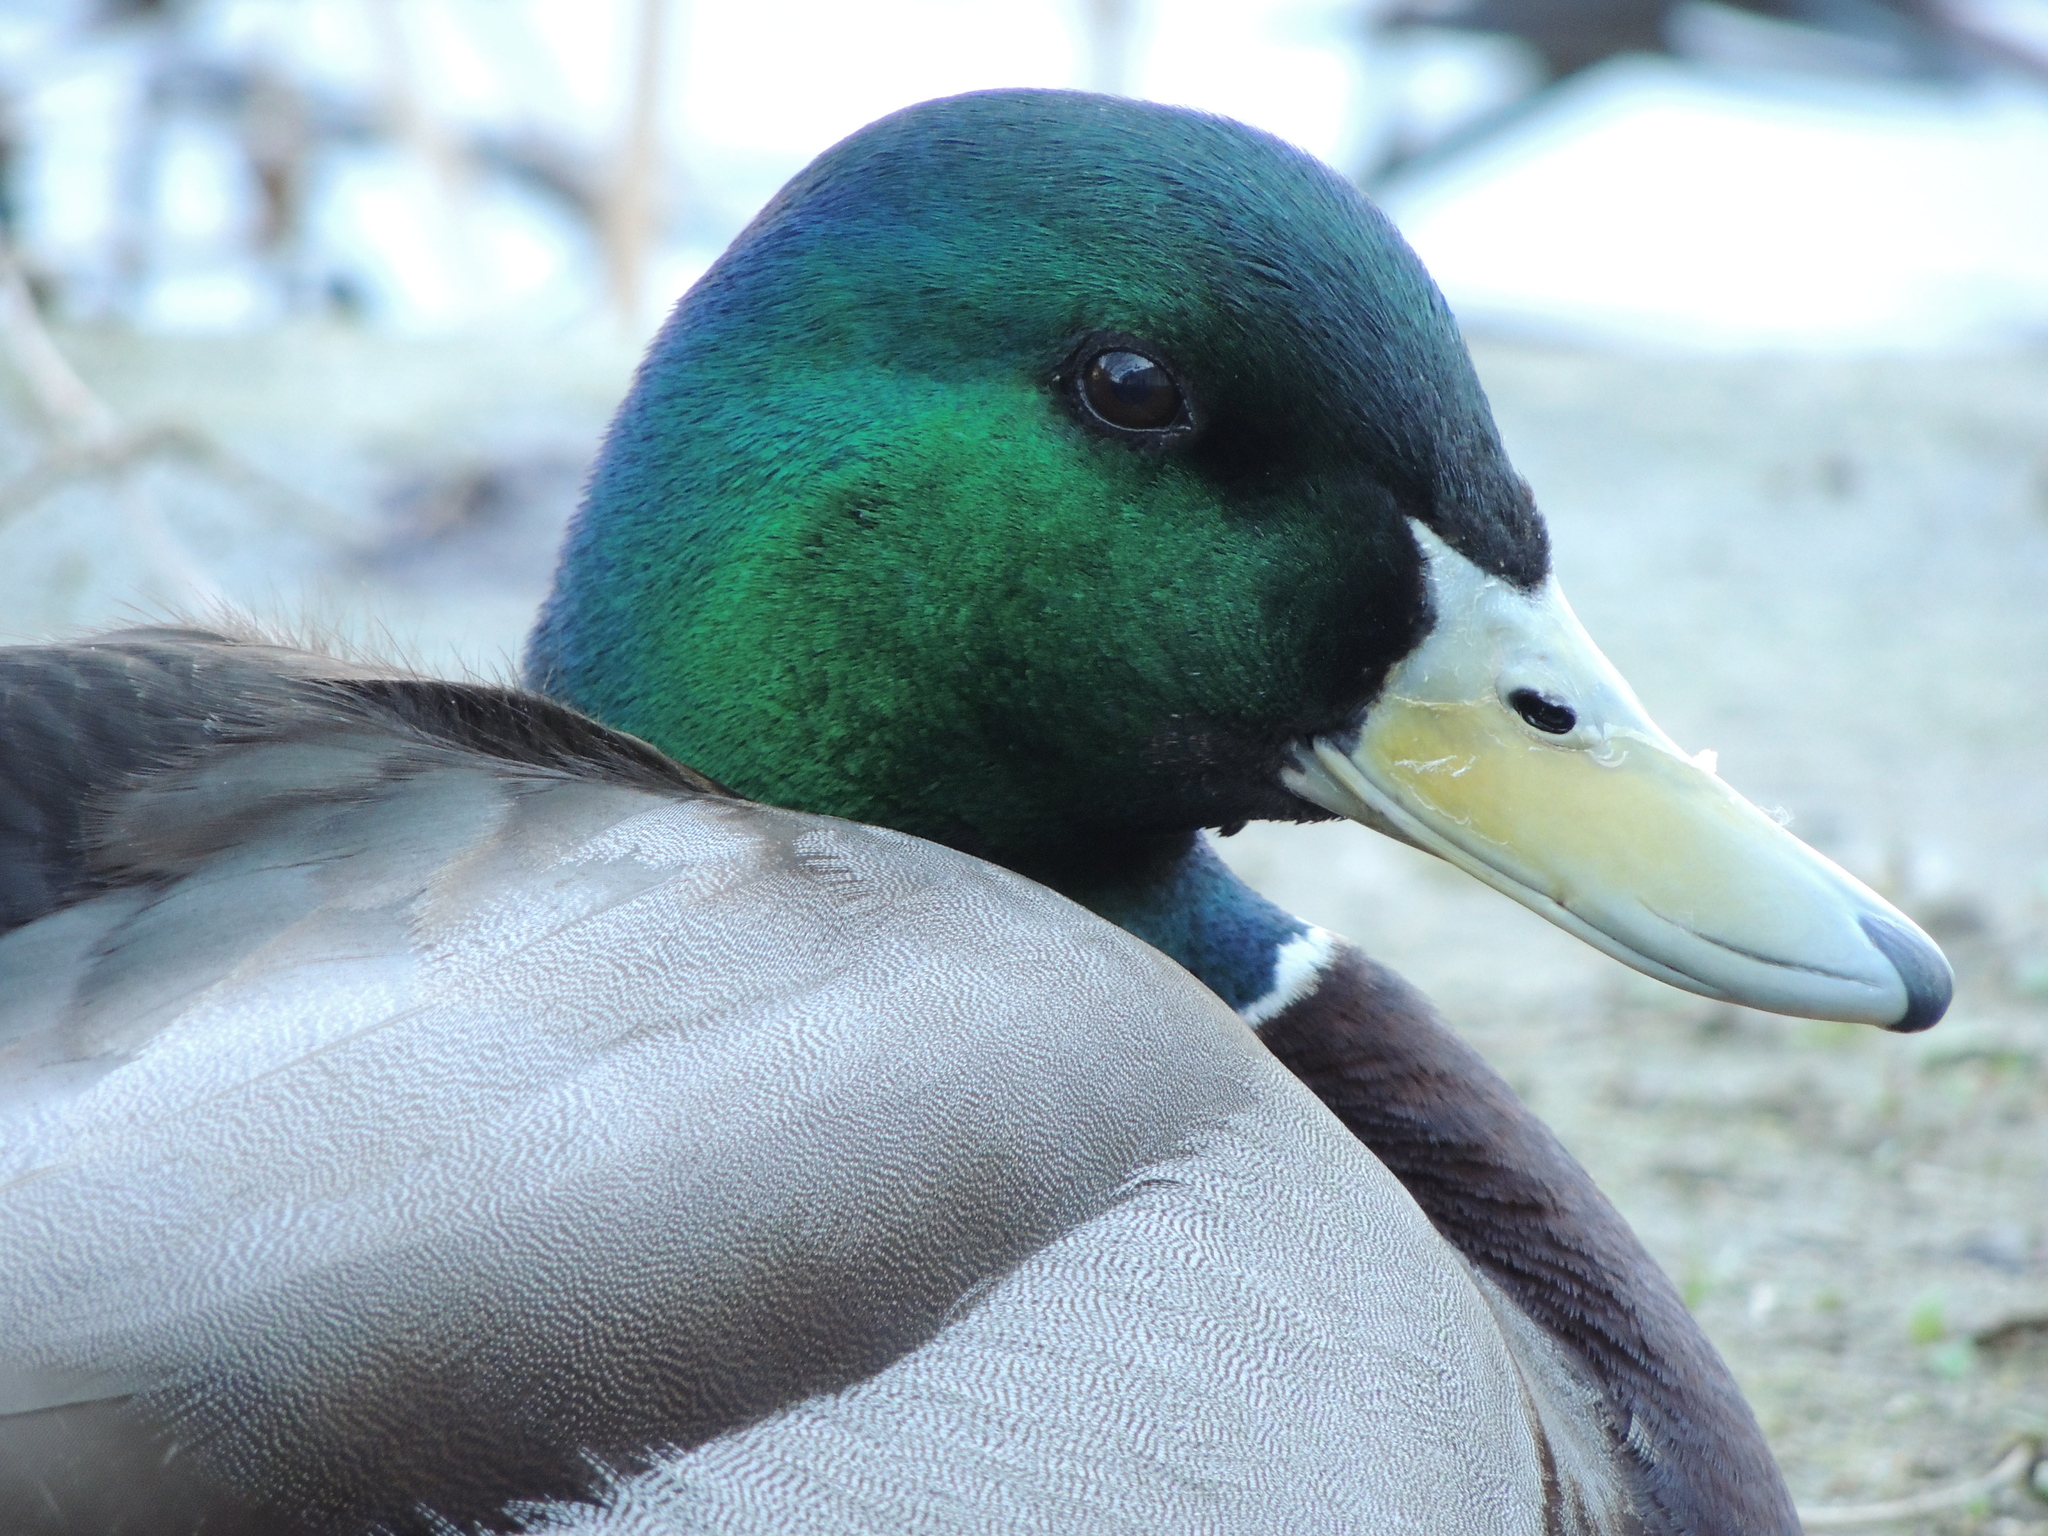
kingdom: Animalia
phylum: Chordata
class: Aves
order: Anseriformes
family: Anatidae
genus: Anas
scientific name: Anas platyrhynchos
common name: Mallard
